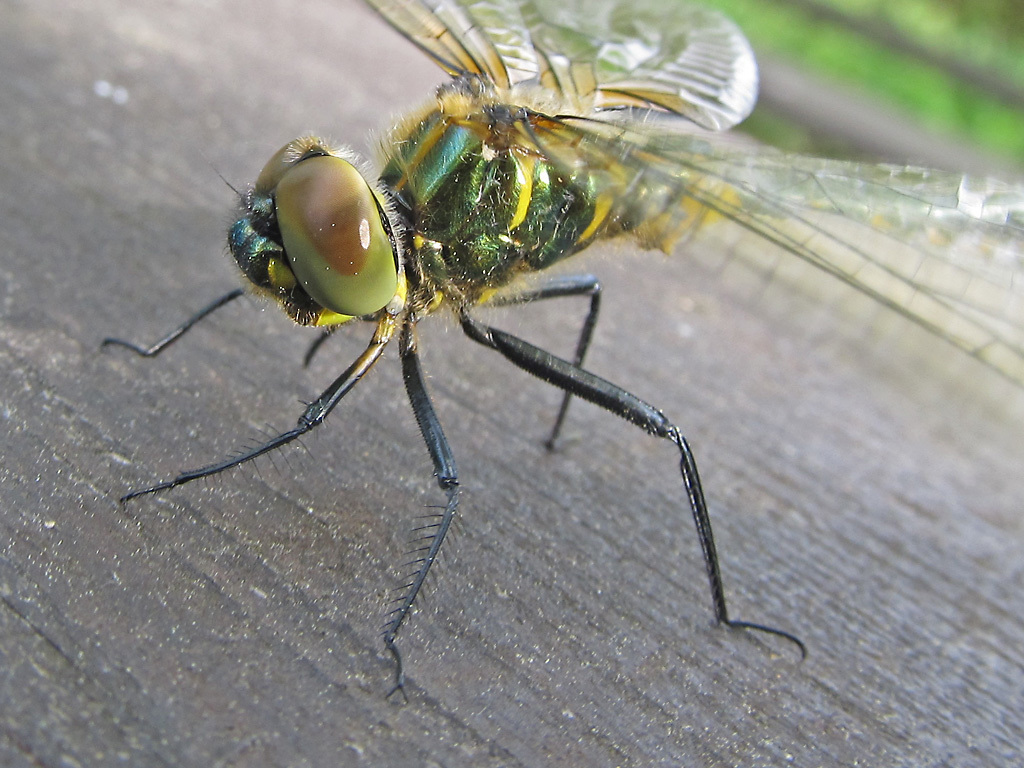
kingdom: Animalia
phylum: Arthropoda
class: Insecta
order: Odonata
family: Corduliidae
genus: Somatochlora
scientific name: Somatochlora flavomaculata
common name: Yellow-spotted emerald
